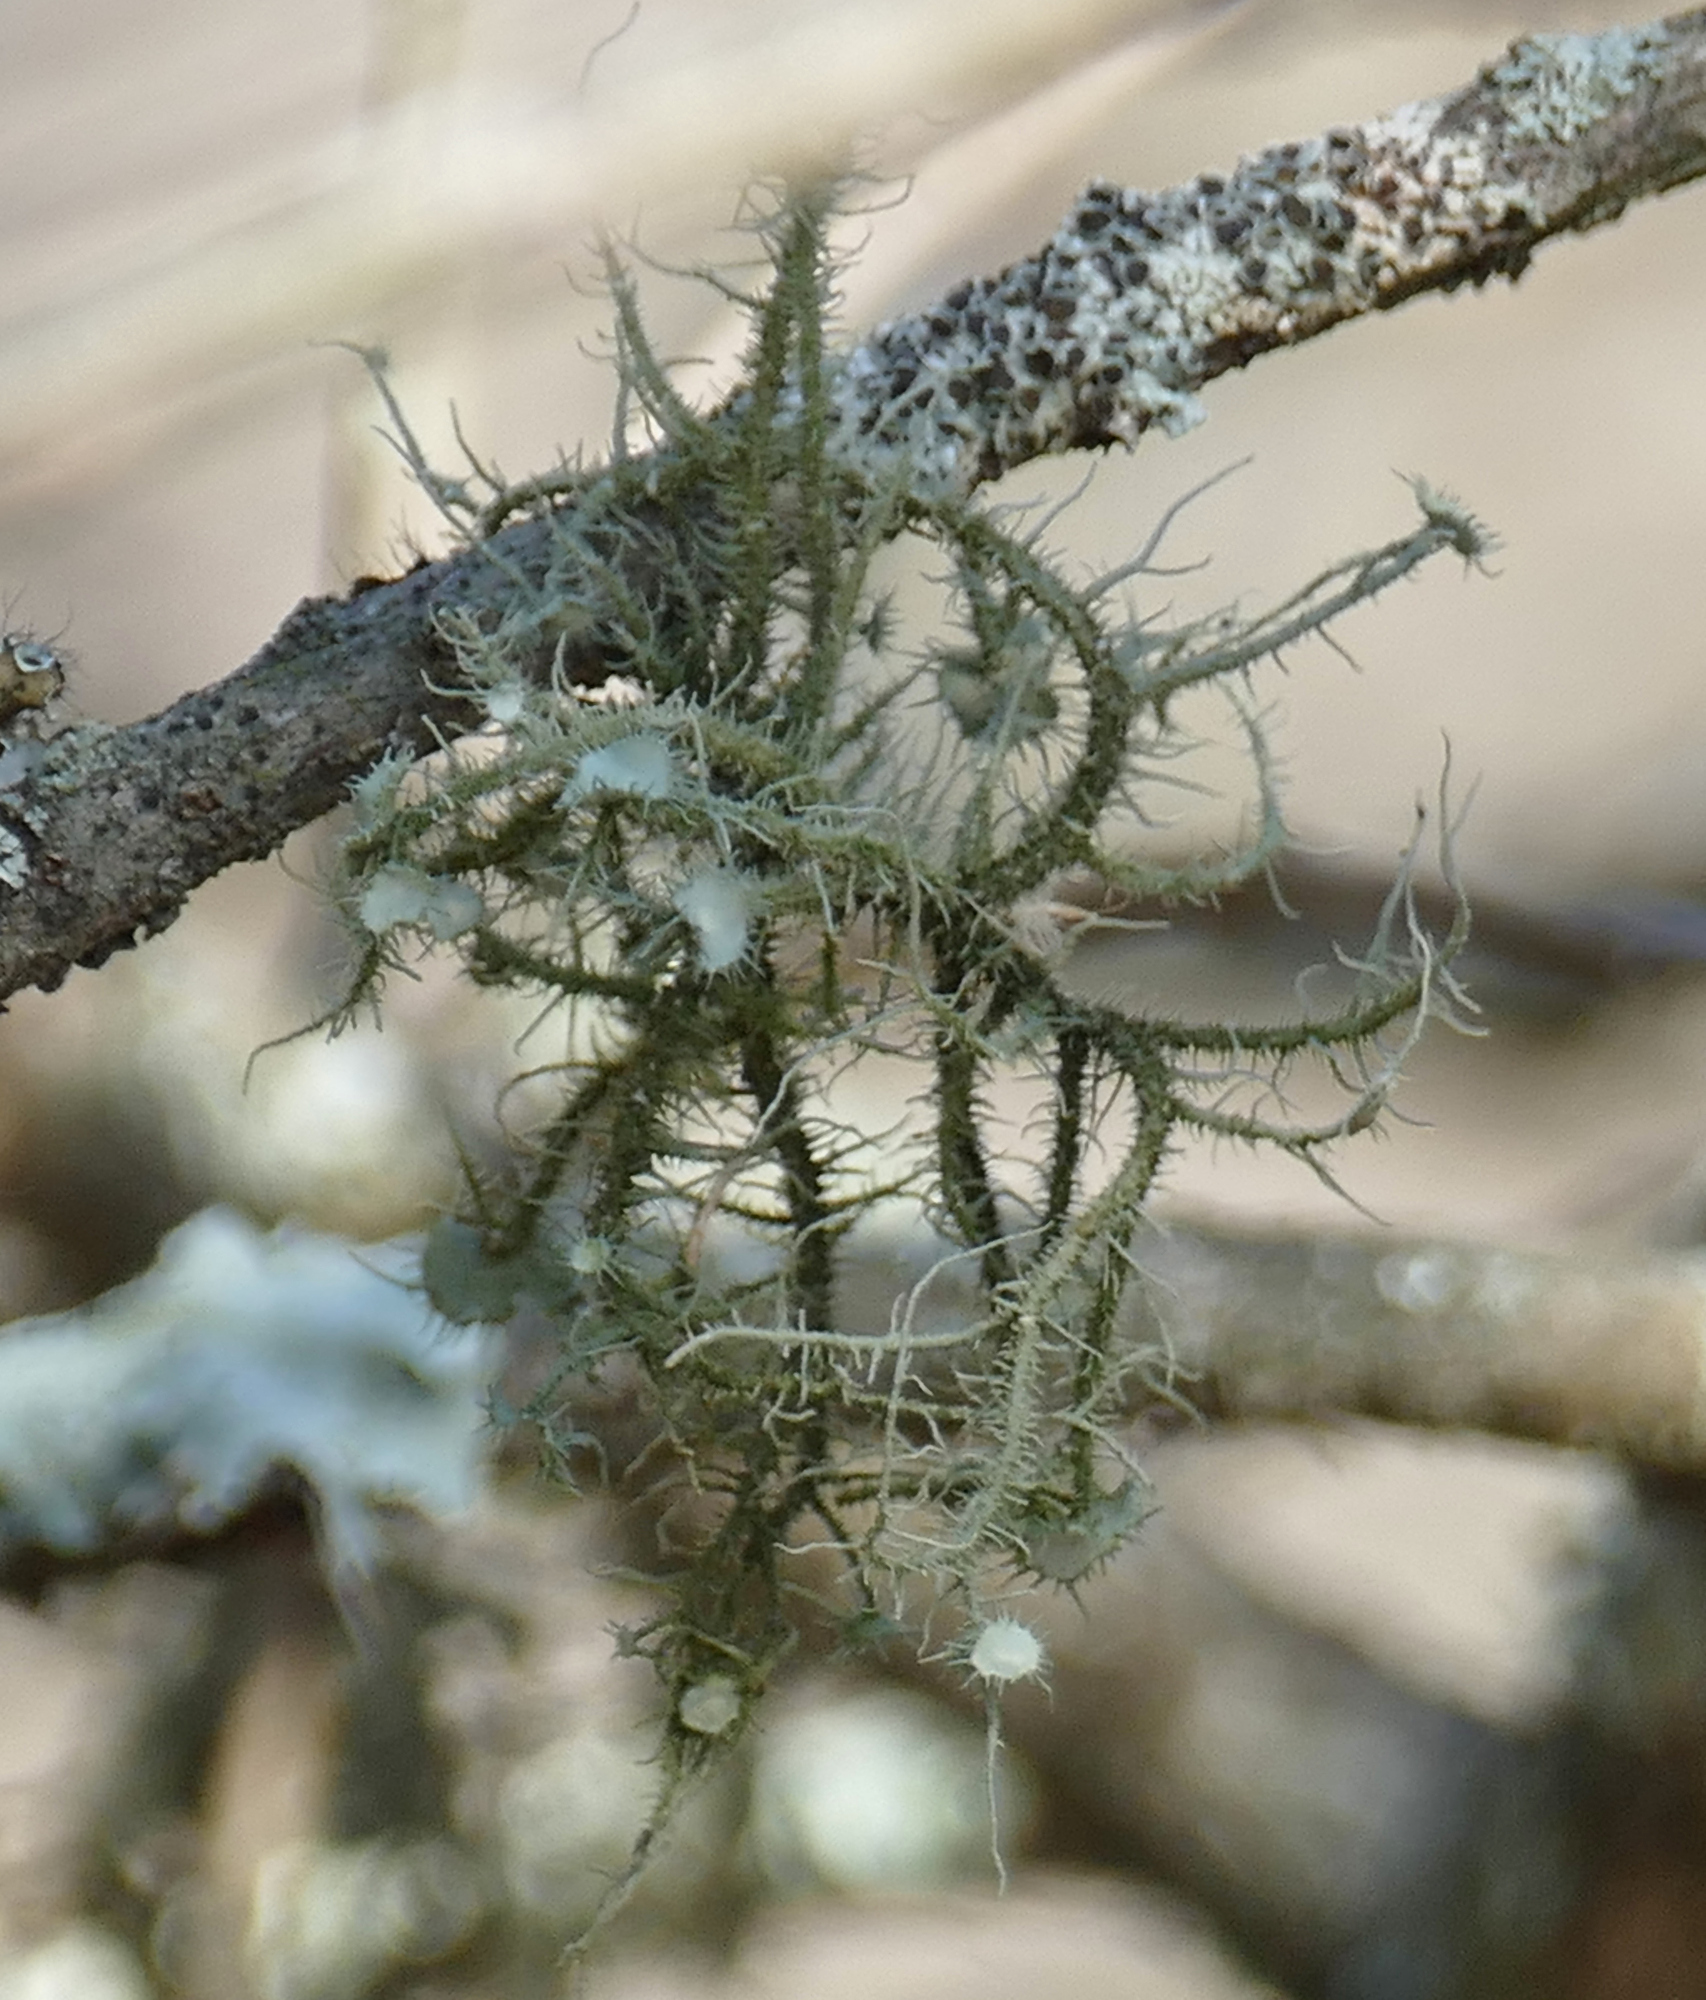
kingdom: Fungi
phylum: Ascomycota
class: Lecanoromycetes
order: Lecanorales
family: Parmeliaceae
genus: Usnea
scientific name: Usnea strigosa
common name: Bushy beard lichen
